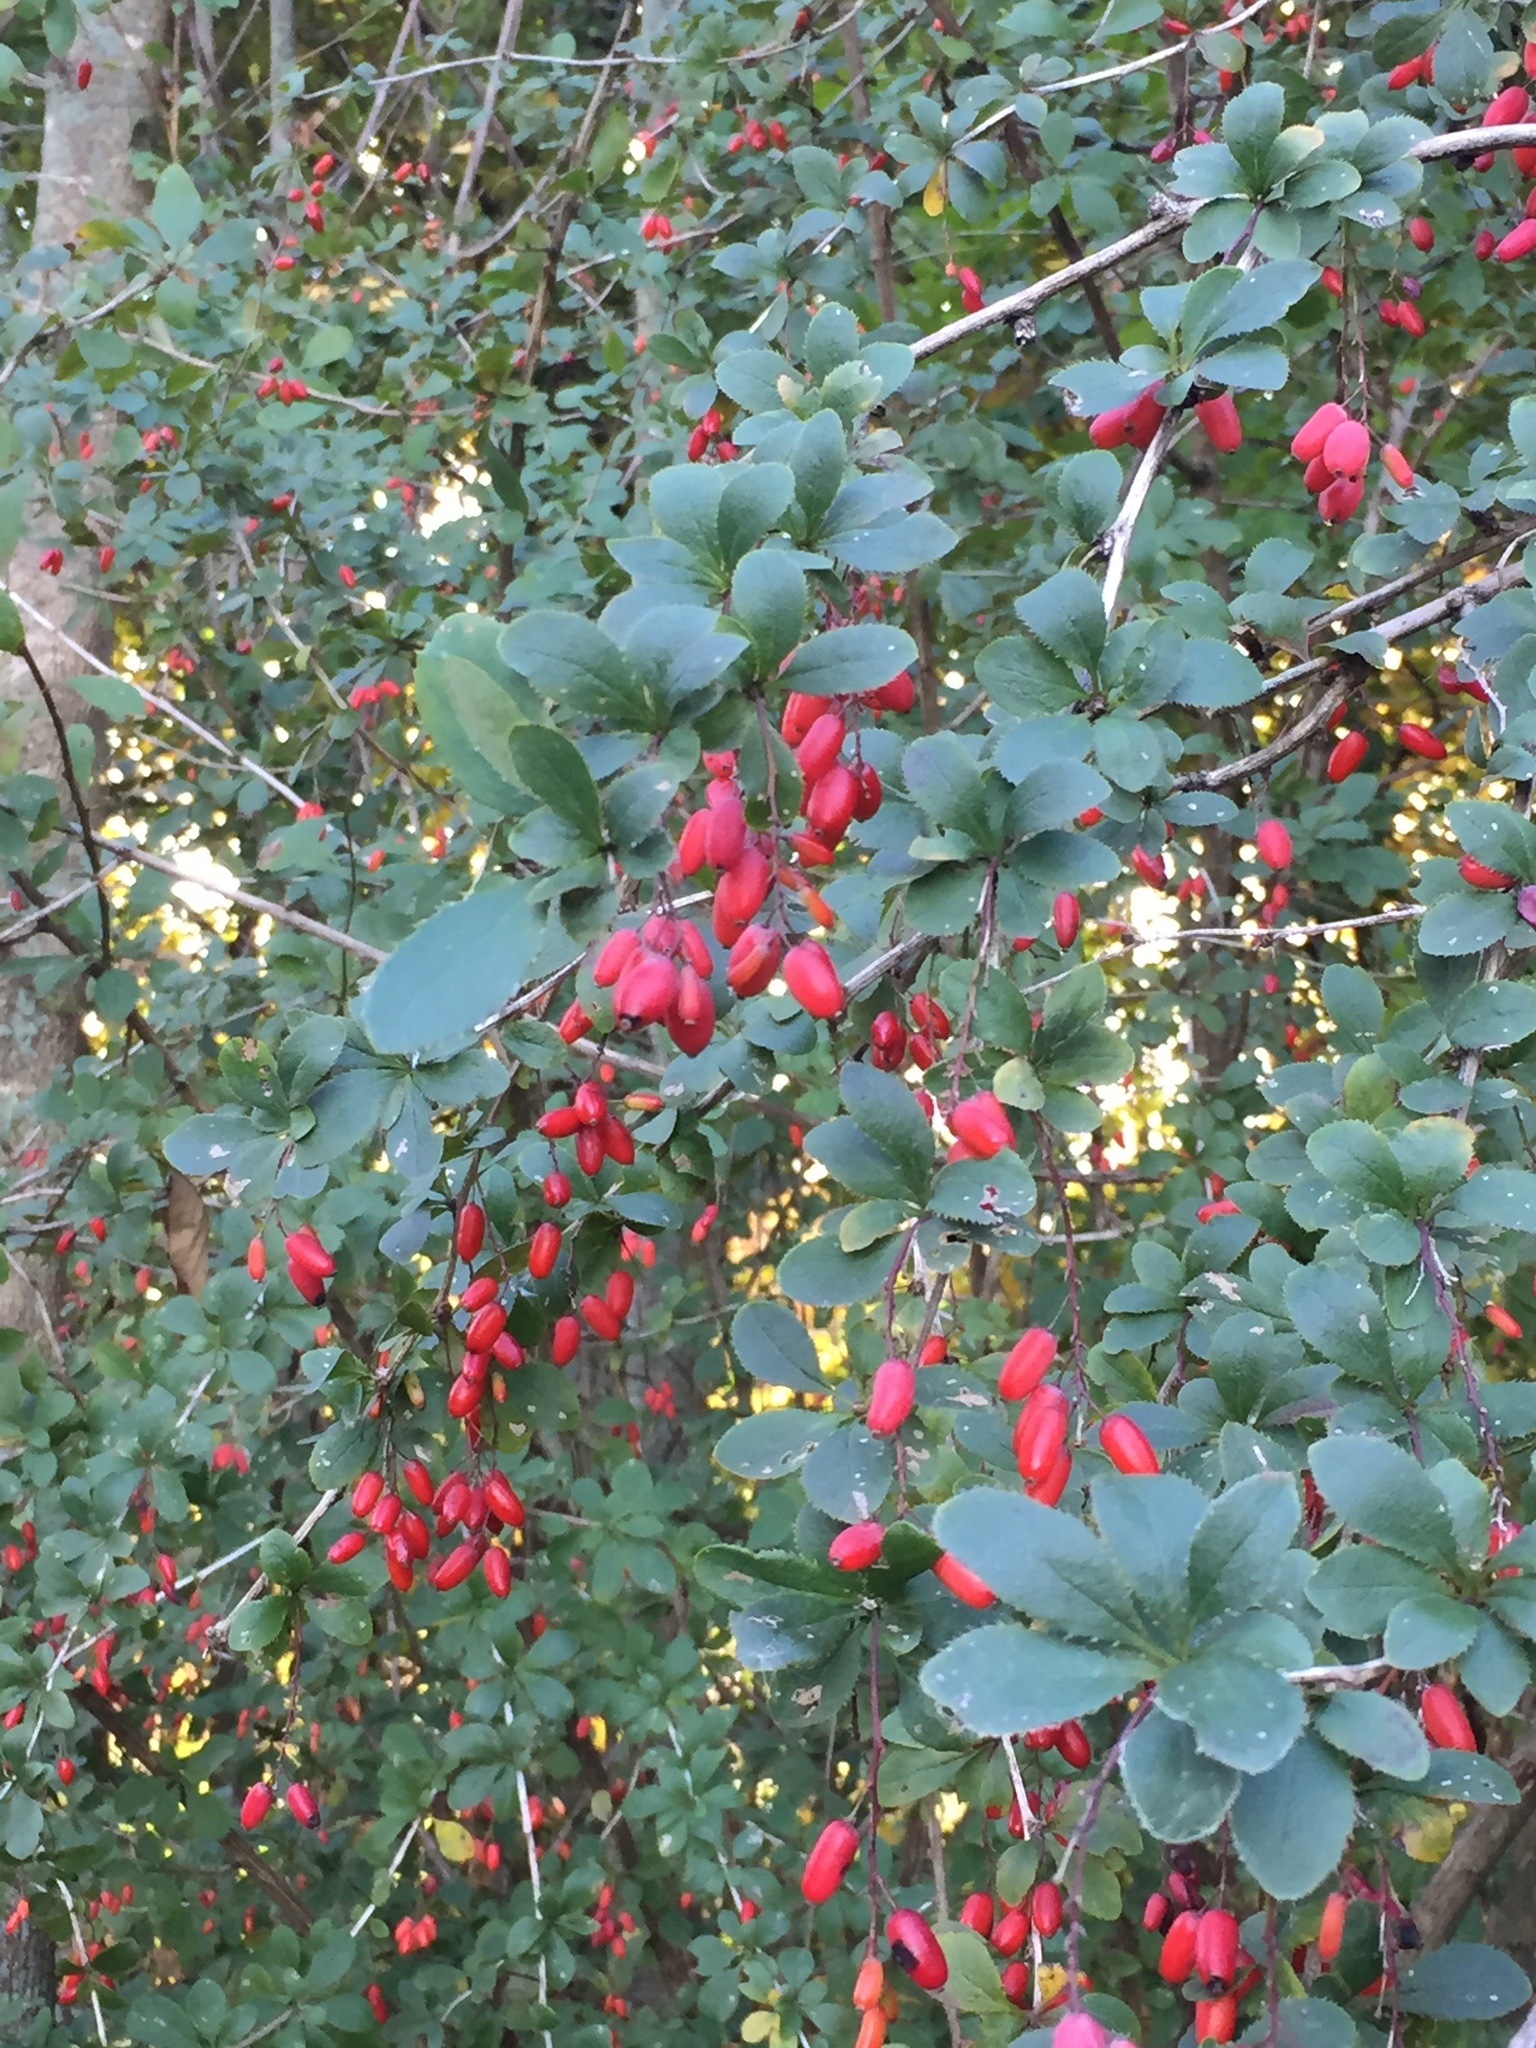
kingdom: Plantae
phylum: Tracheophyta
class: Magnoliopsida
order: Ranunculales
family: Berberidaceae
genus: Berberis
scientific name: Berberis vulgaris
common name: Barberry
